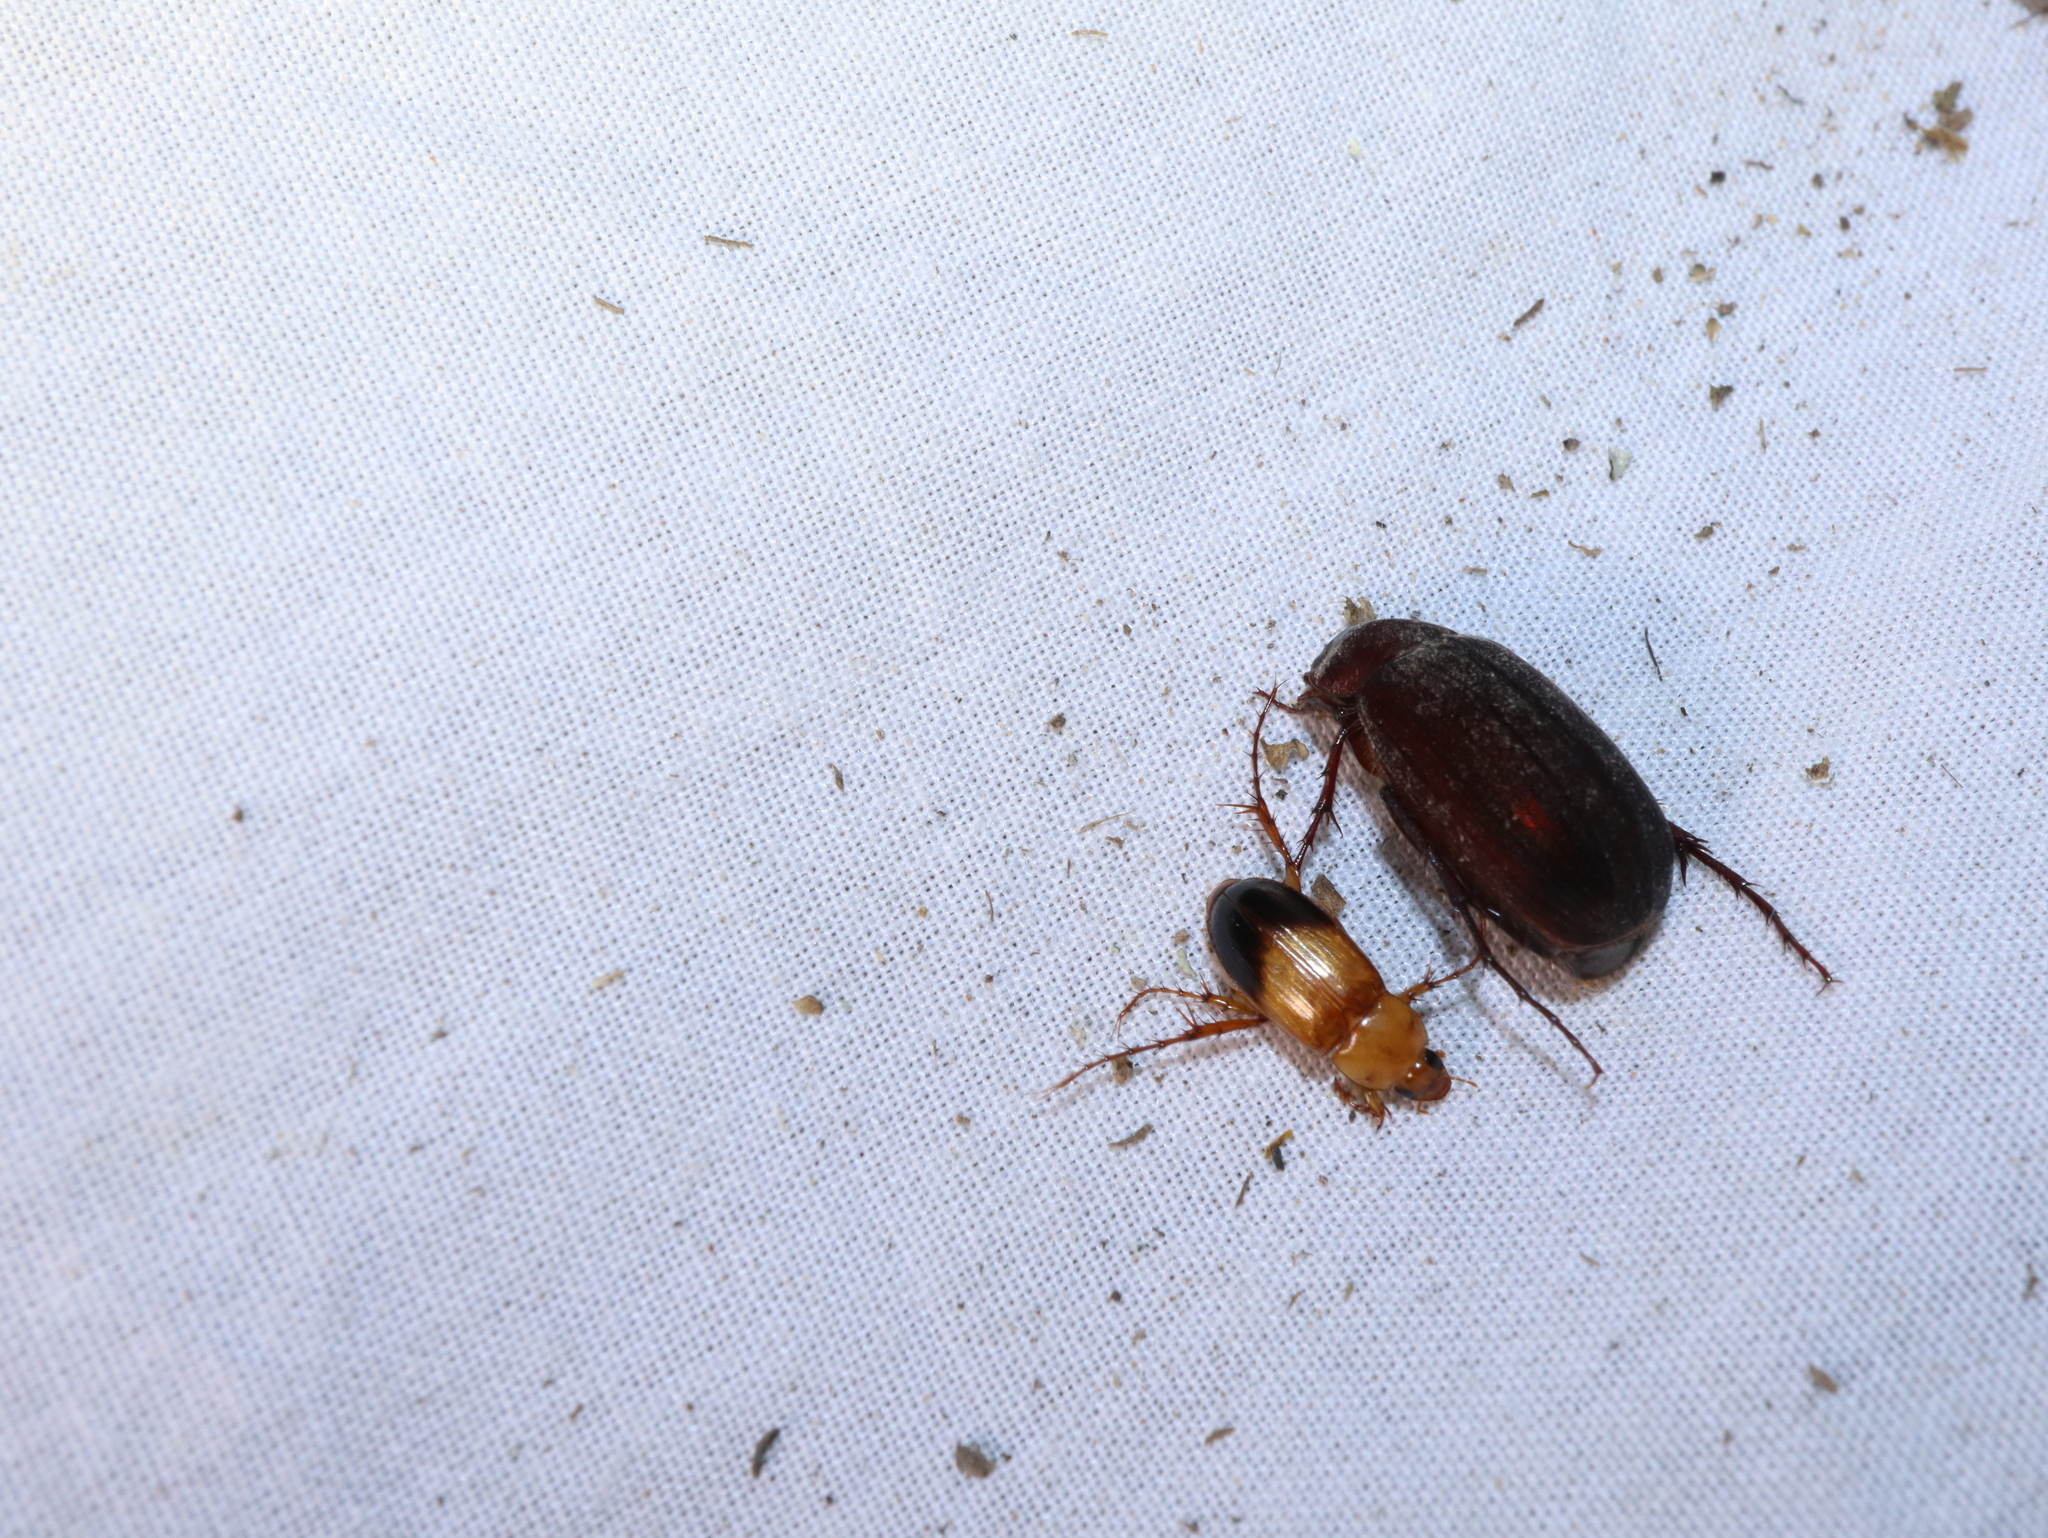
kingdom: Animalia
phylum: Arthropoda
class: Insecta
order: Coleoptera
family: Scarabaeidae
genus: Phyllotocus
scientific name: Phyllotocus macleayi
